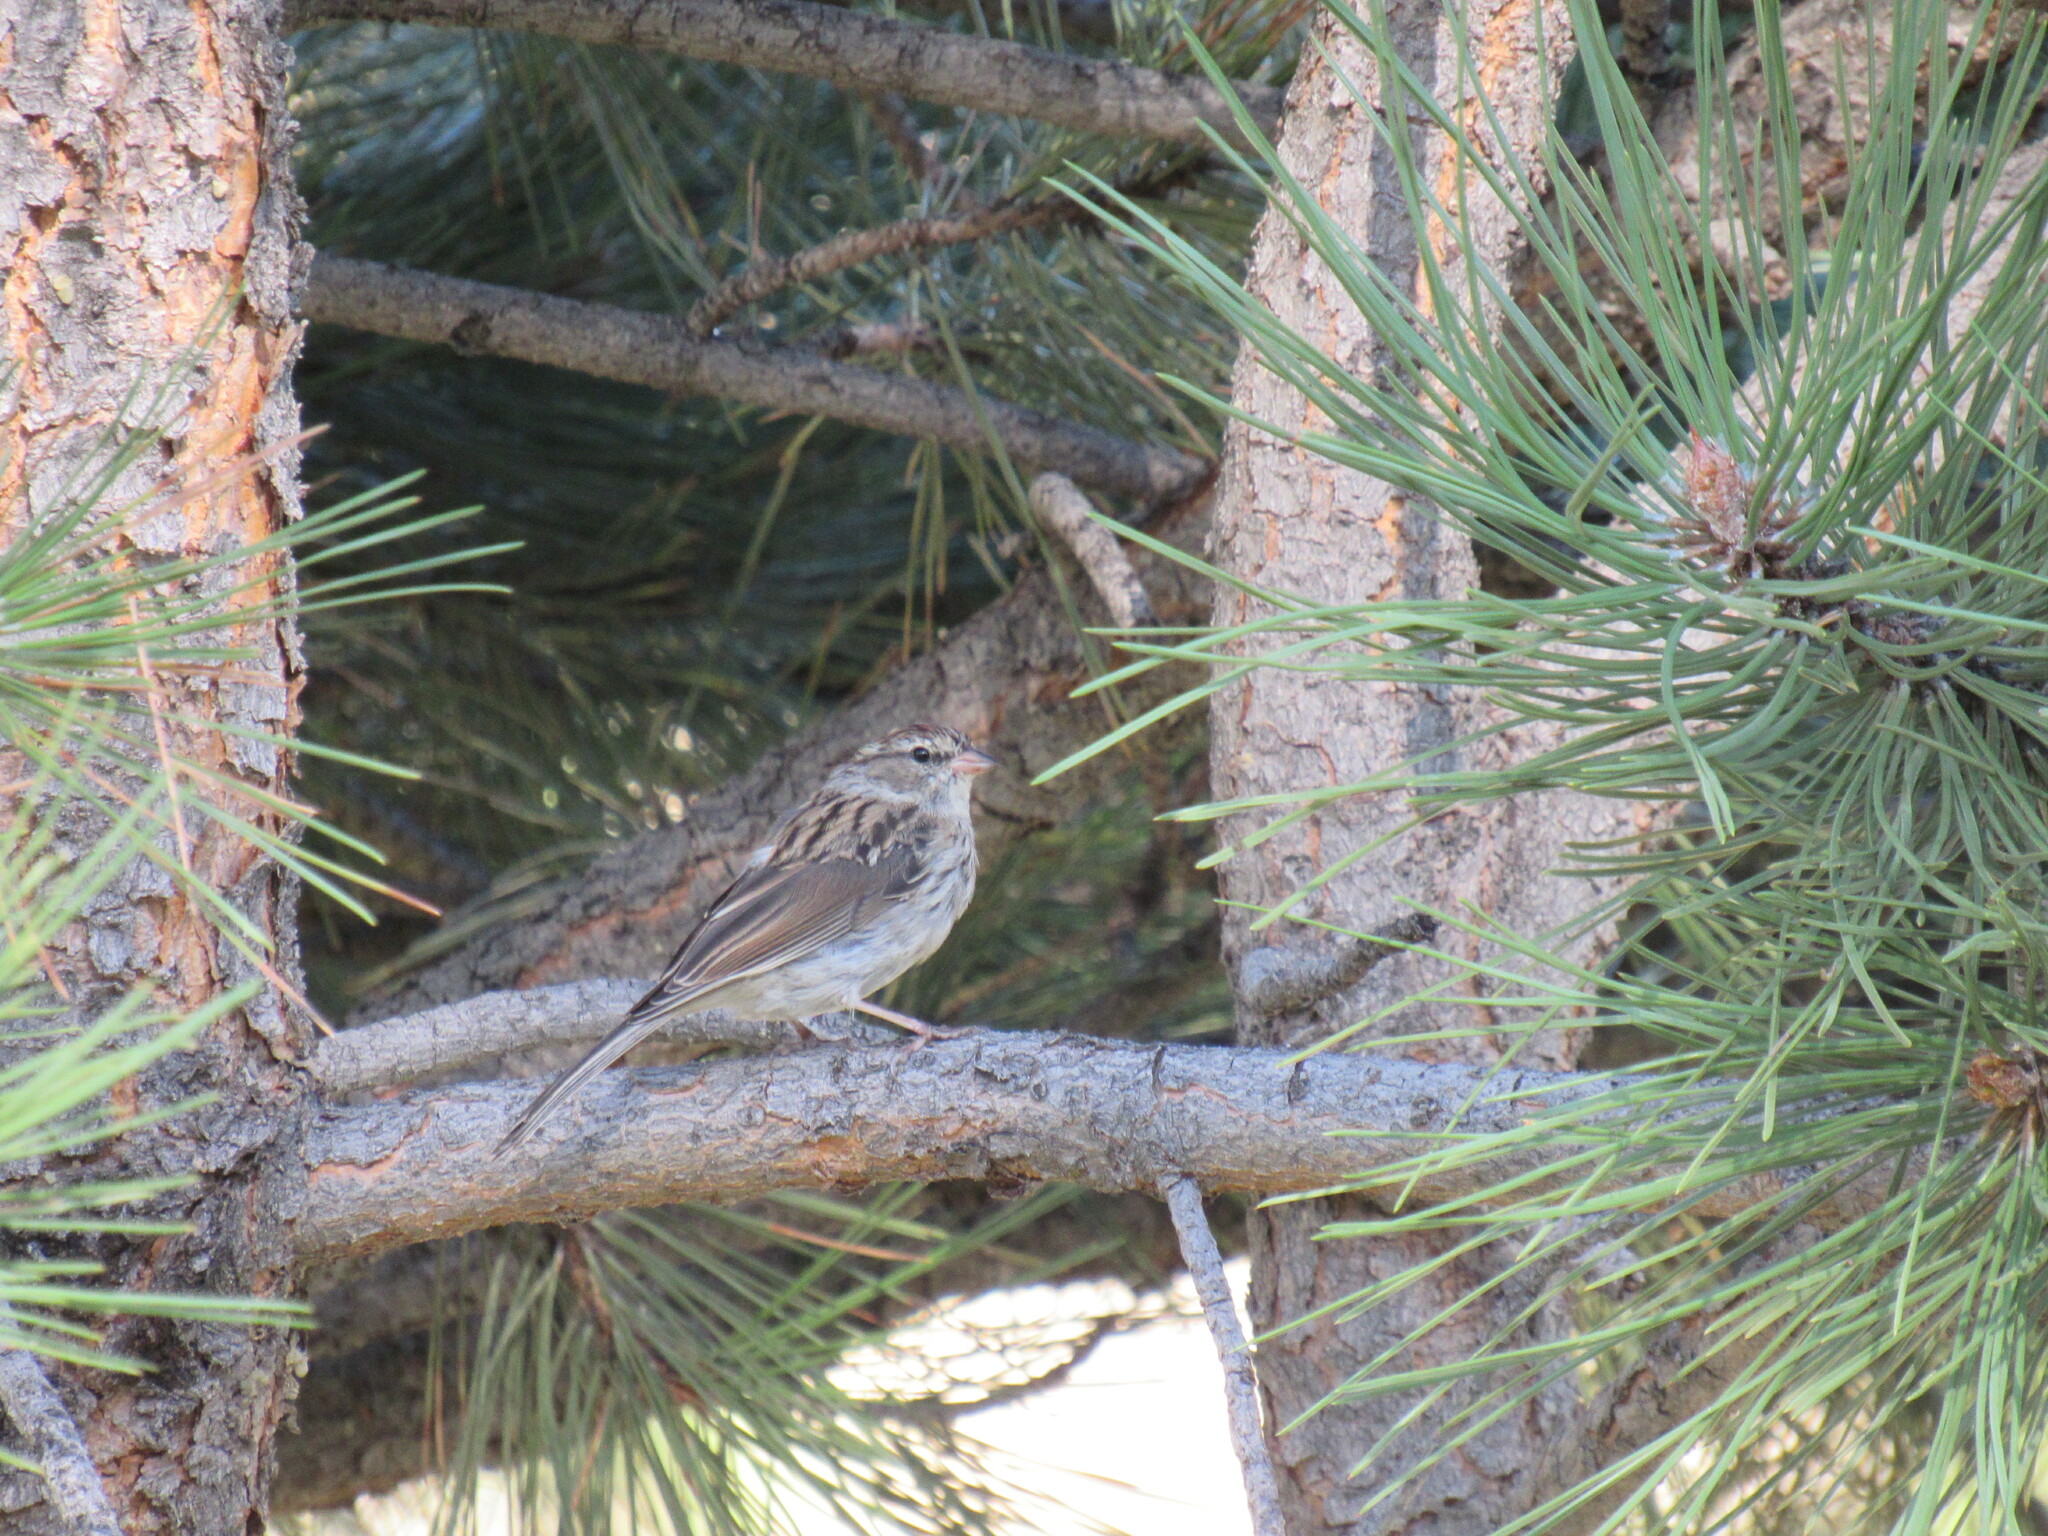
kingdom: Animalia
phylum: Chordata
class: Aves
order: Passeriformes
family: Passerellidae
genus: Spizella
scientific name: Spizella passerina
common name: Chipping sparrow
